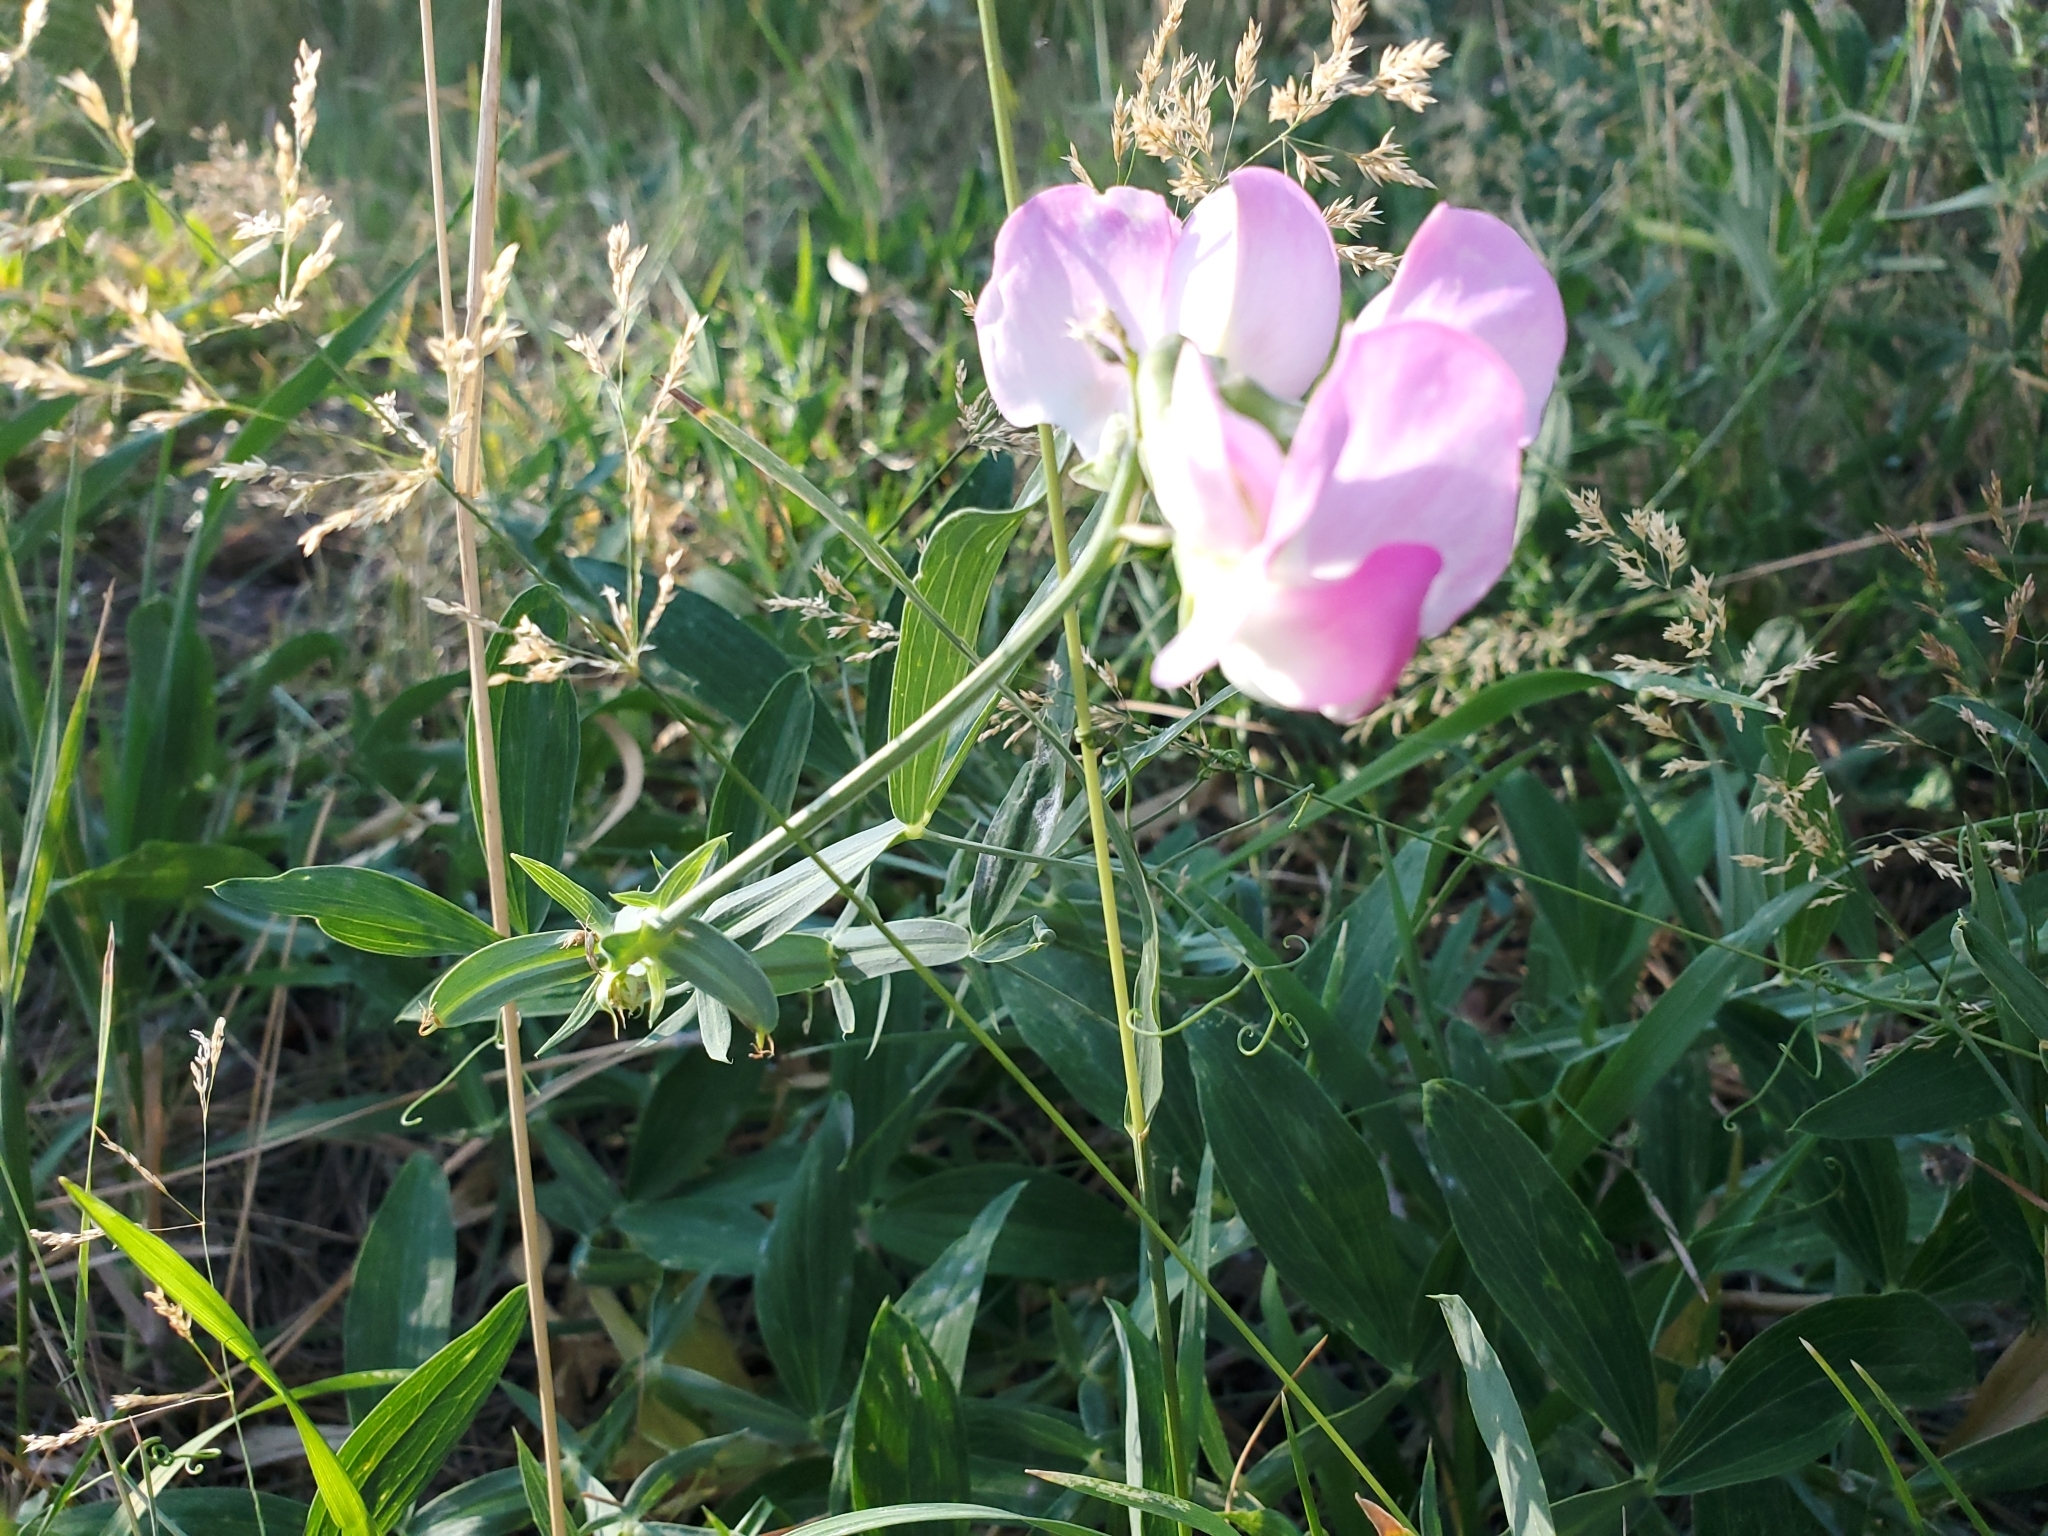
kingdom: Plantae
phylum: Tracheophyta
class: Magnoliopsida
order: Fabales
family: Fabaceae
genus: Lathyrus
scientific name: Lathyrus latifolius
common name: Perennial pea
